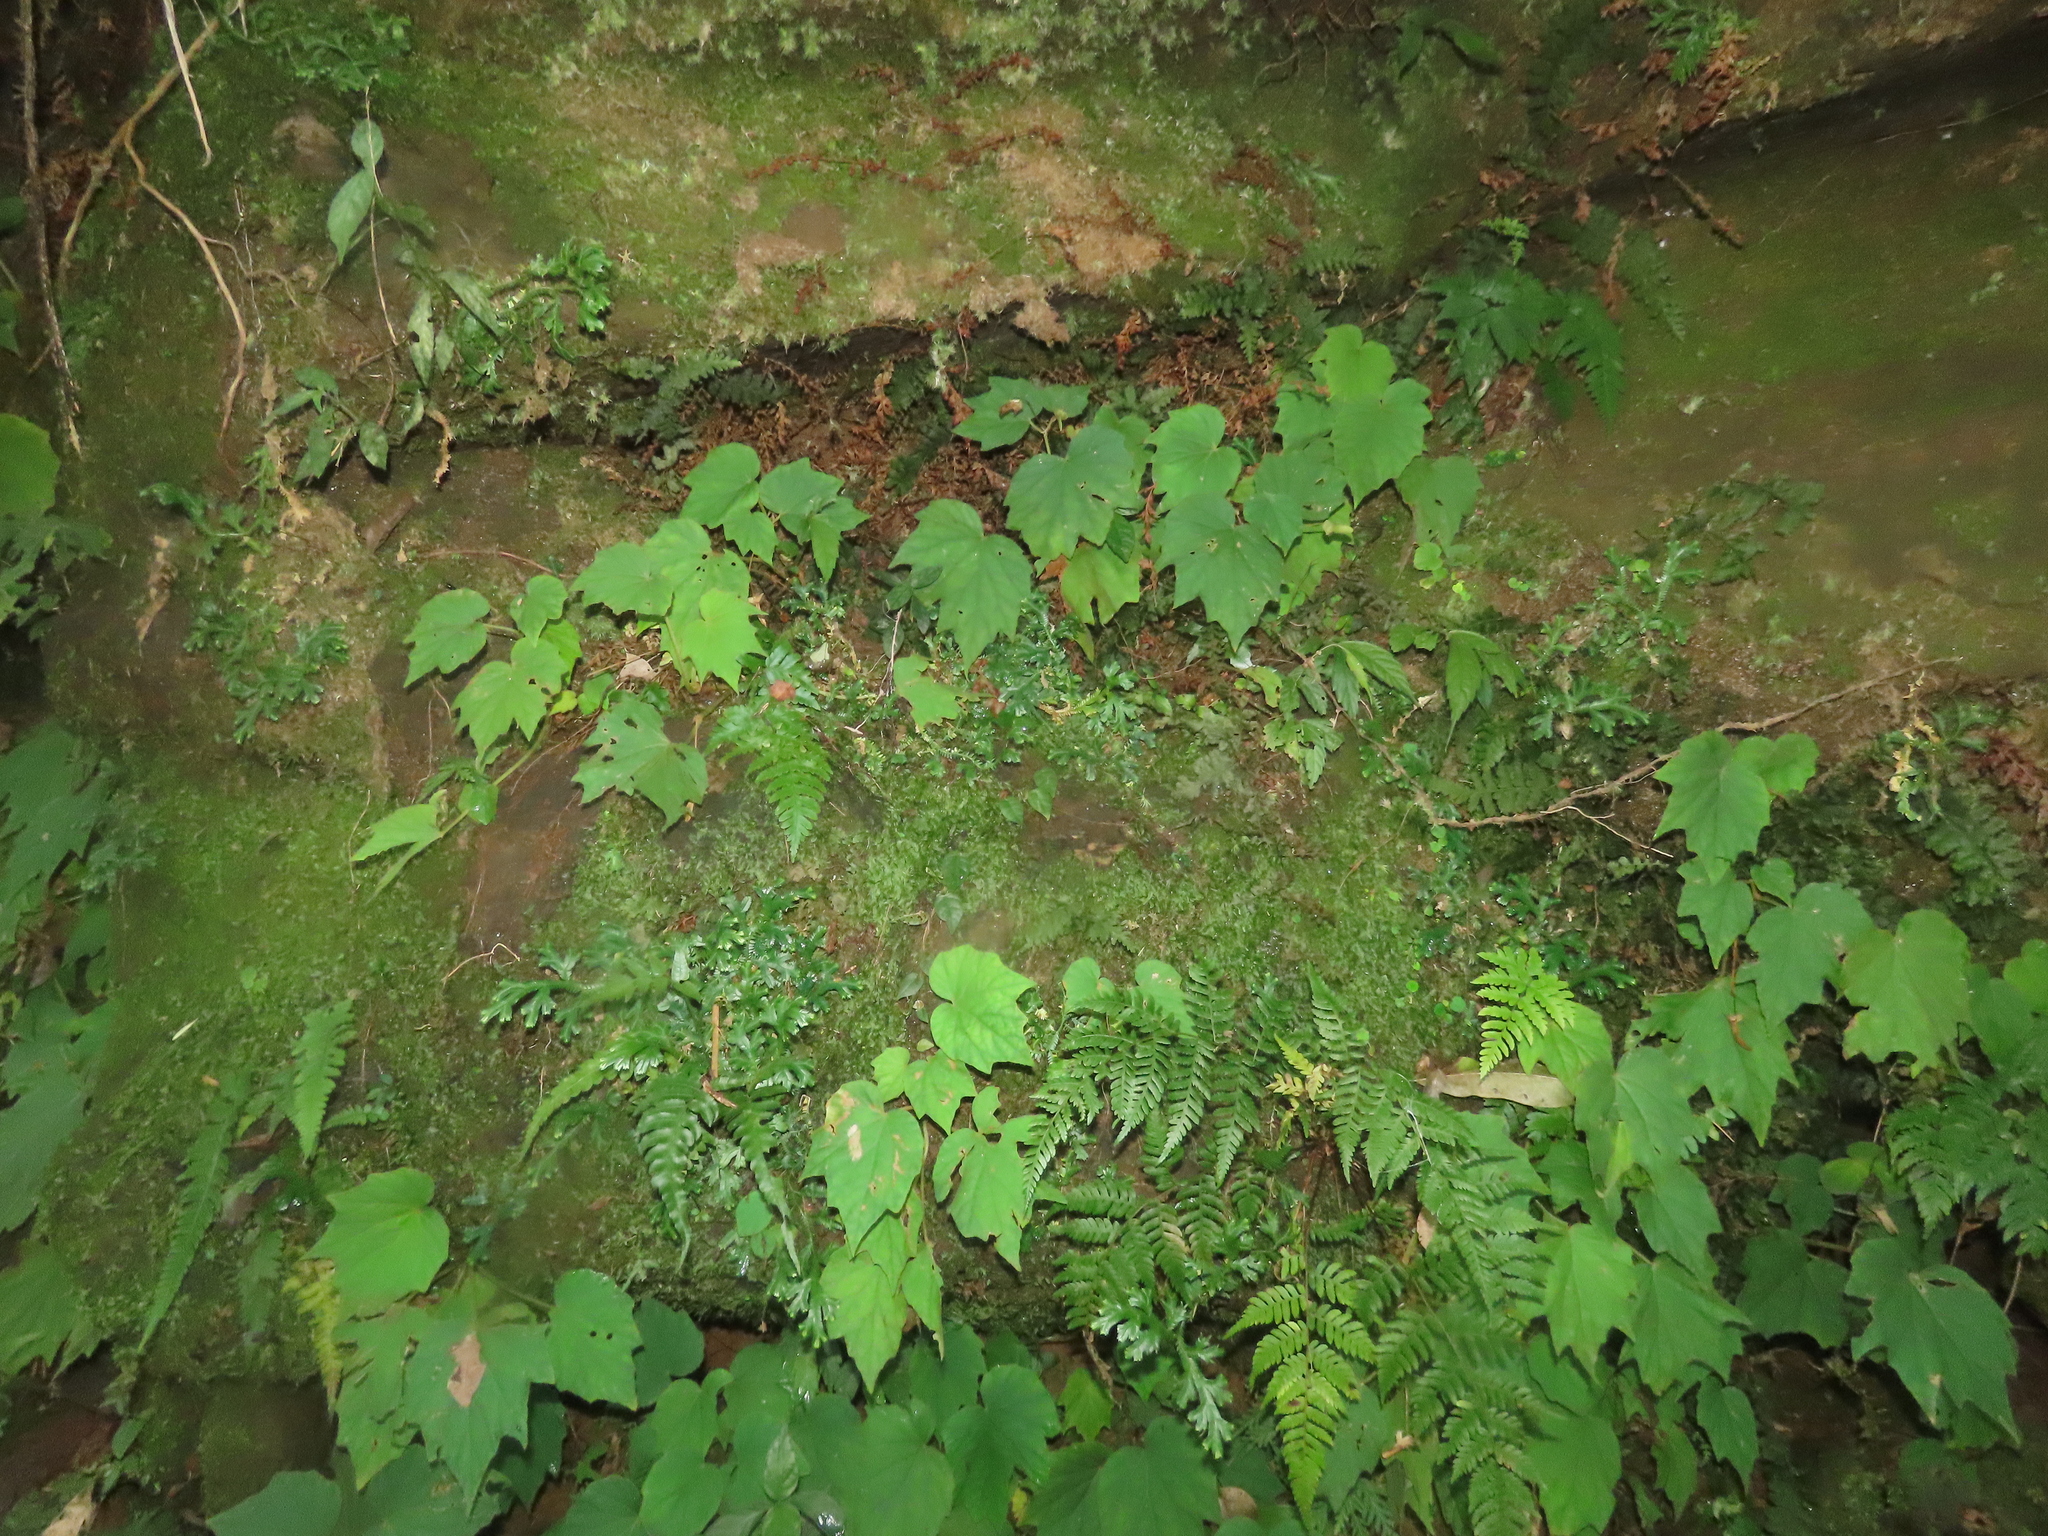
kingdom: Plantae
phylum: Tracheophyta
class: Magnoliopsida
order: Cucurbitales
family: Begoniaceae
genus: Begonia
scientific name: Begonia palmata
